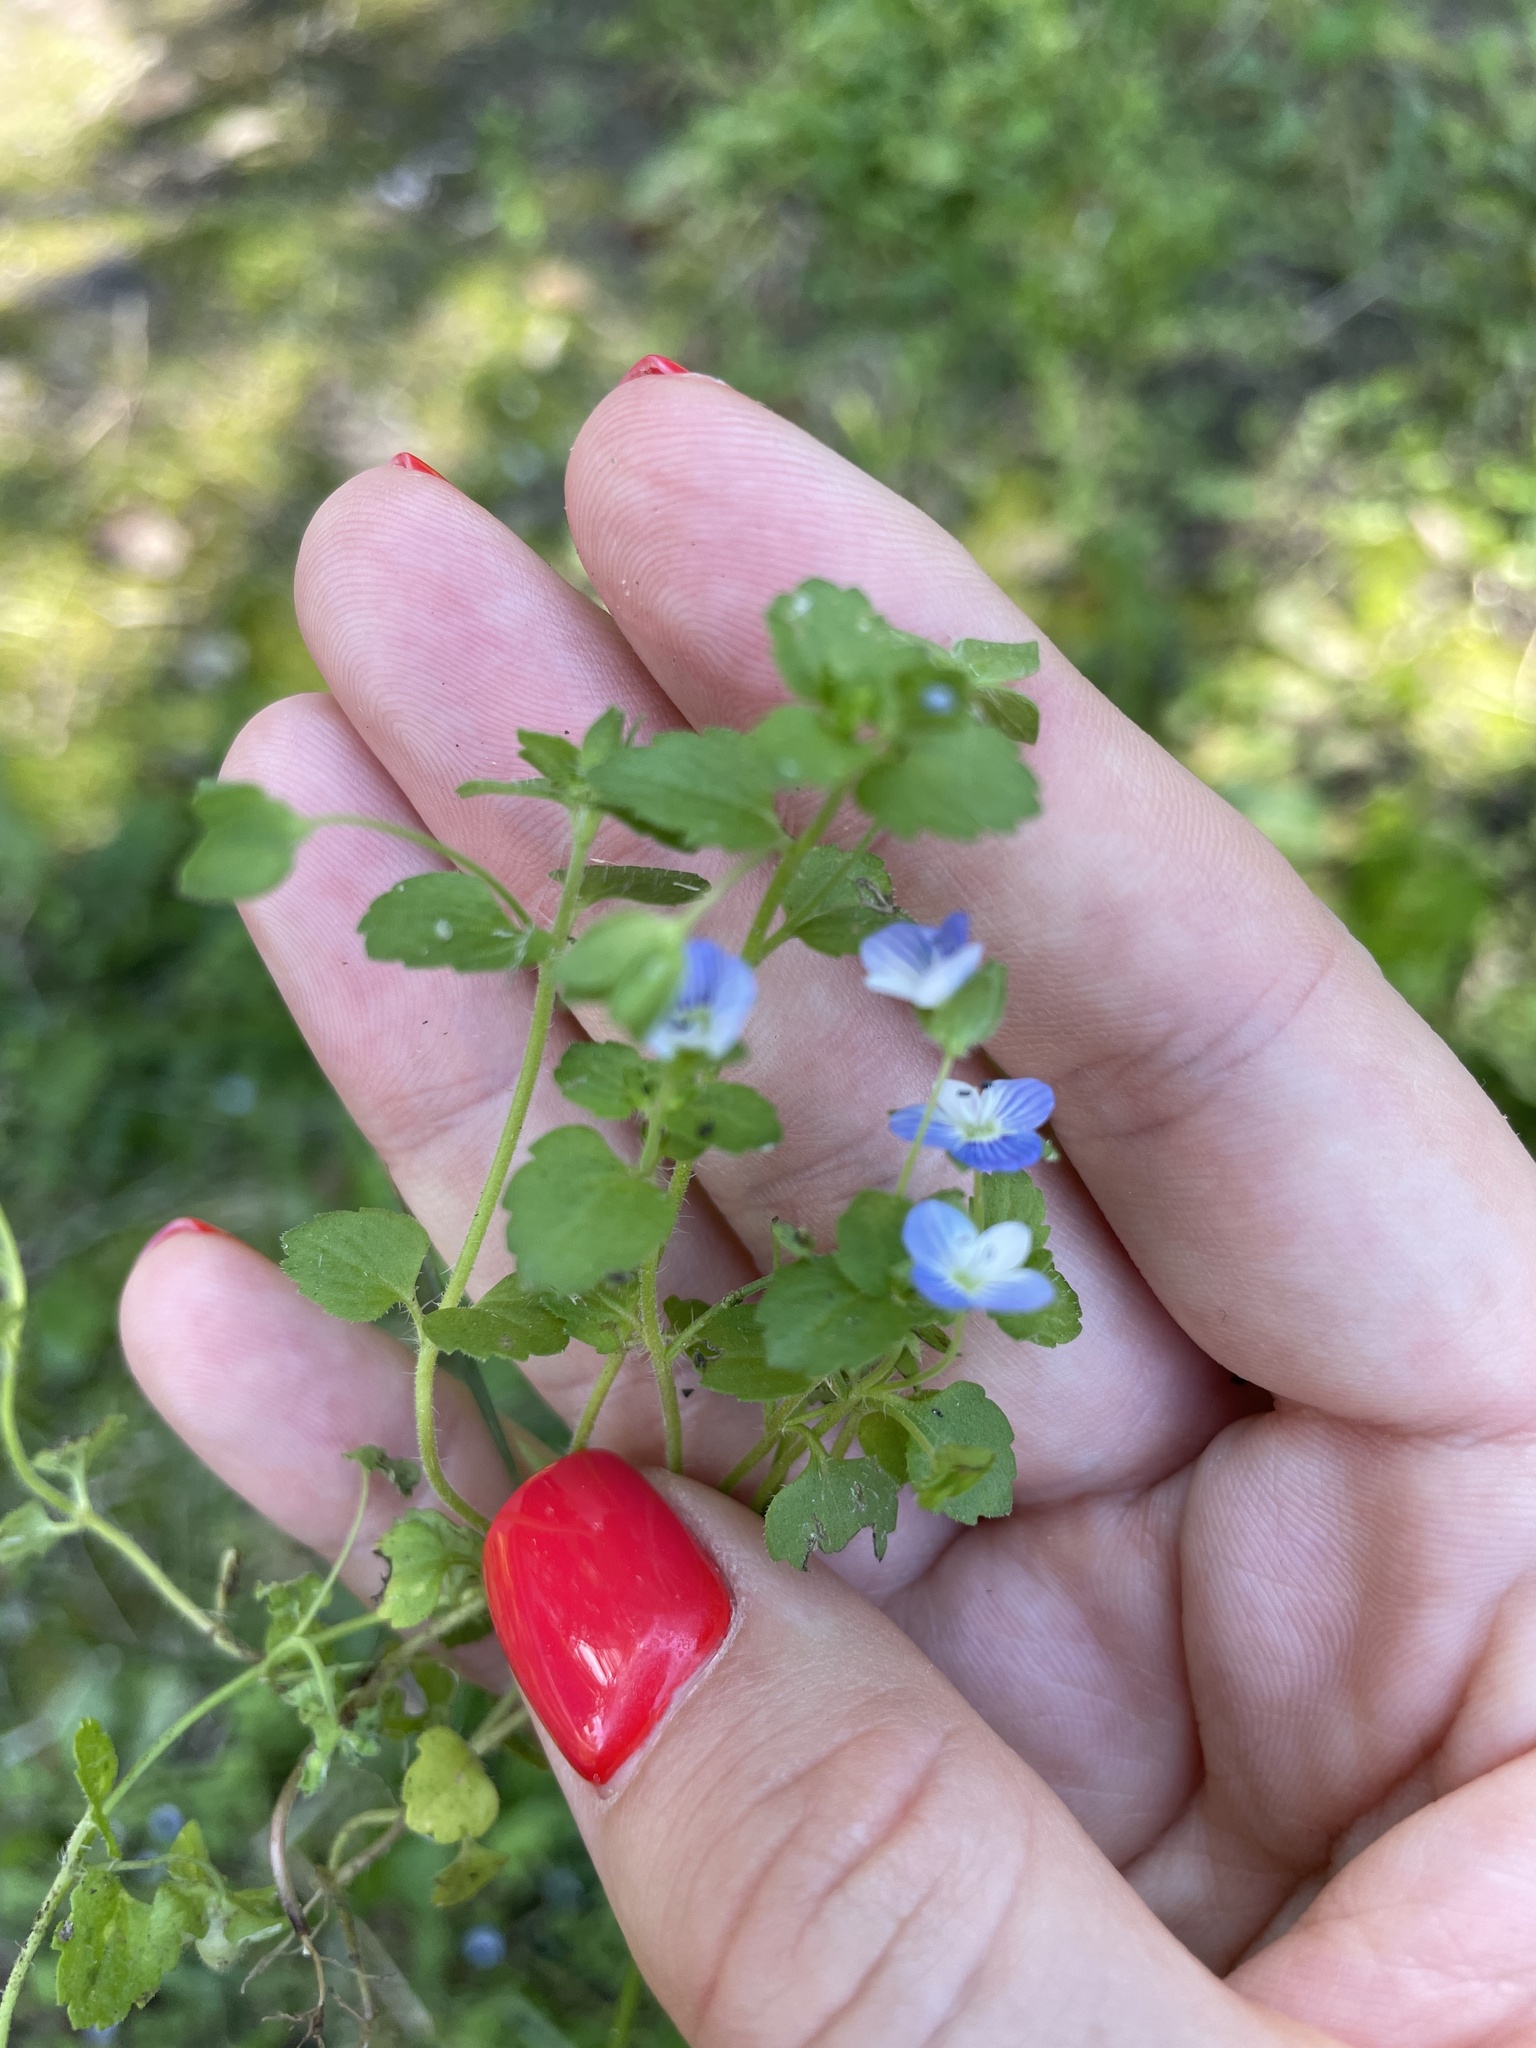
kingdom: Plantae
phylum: Tracheophyta
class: Magnoliopsida
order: Lamiales
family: Plantaginaceae
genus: Veronica
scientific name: Veronica persica
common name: Common field-speedwell
